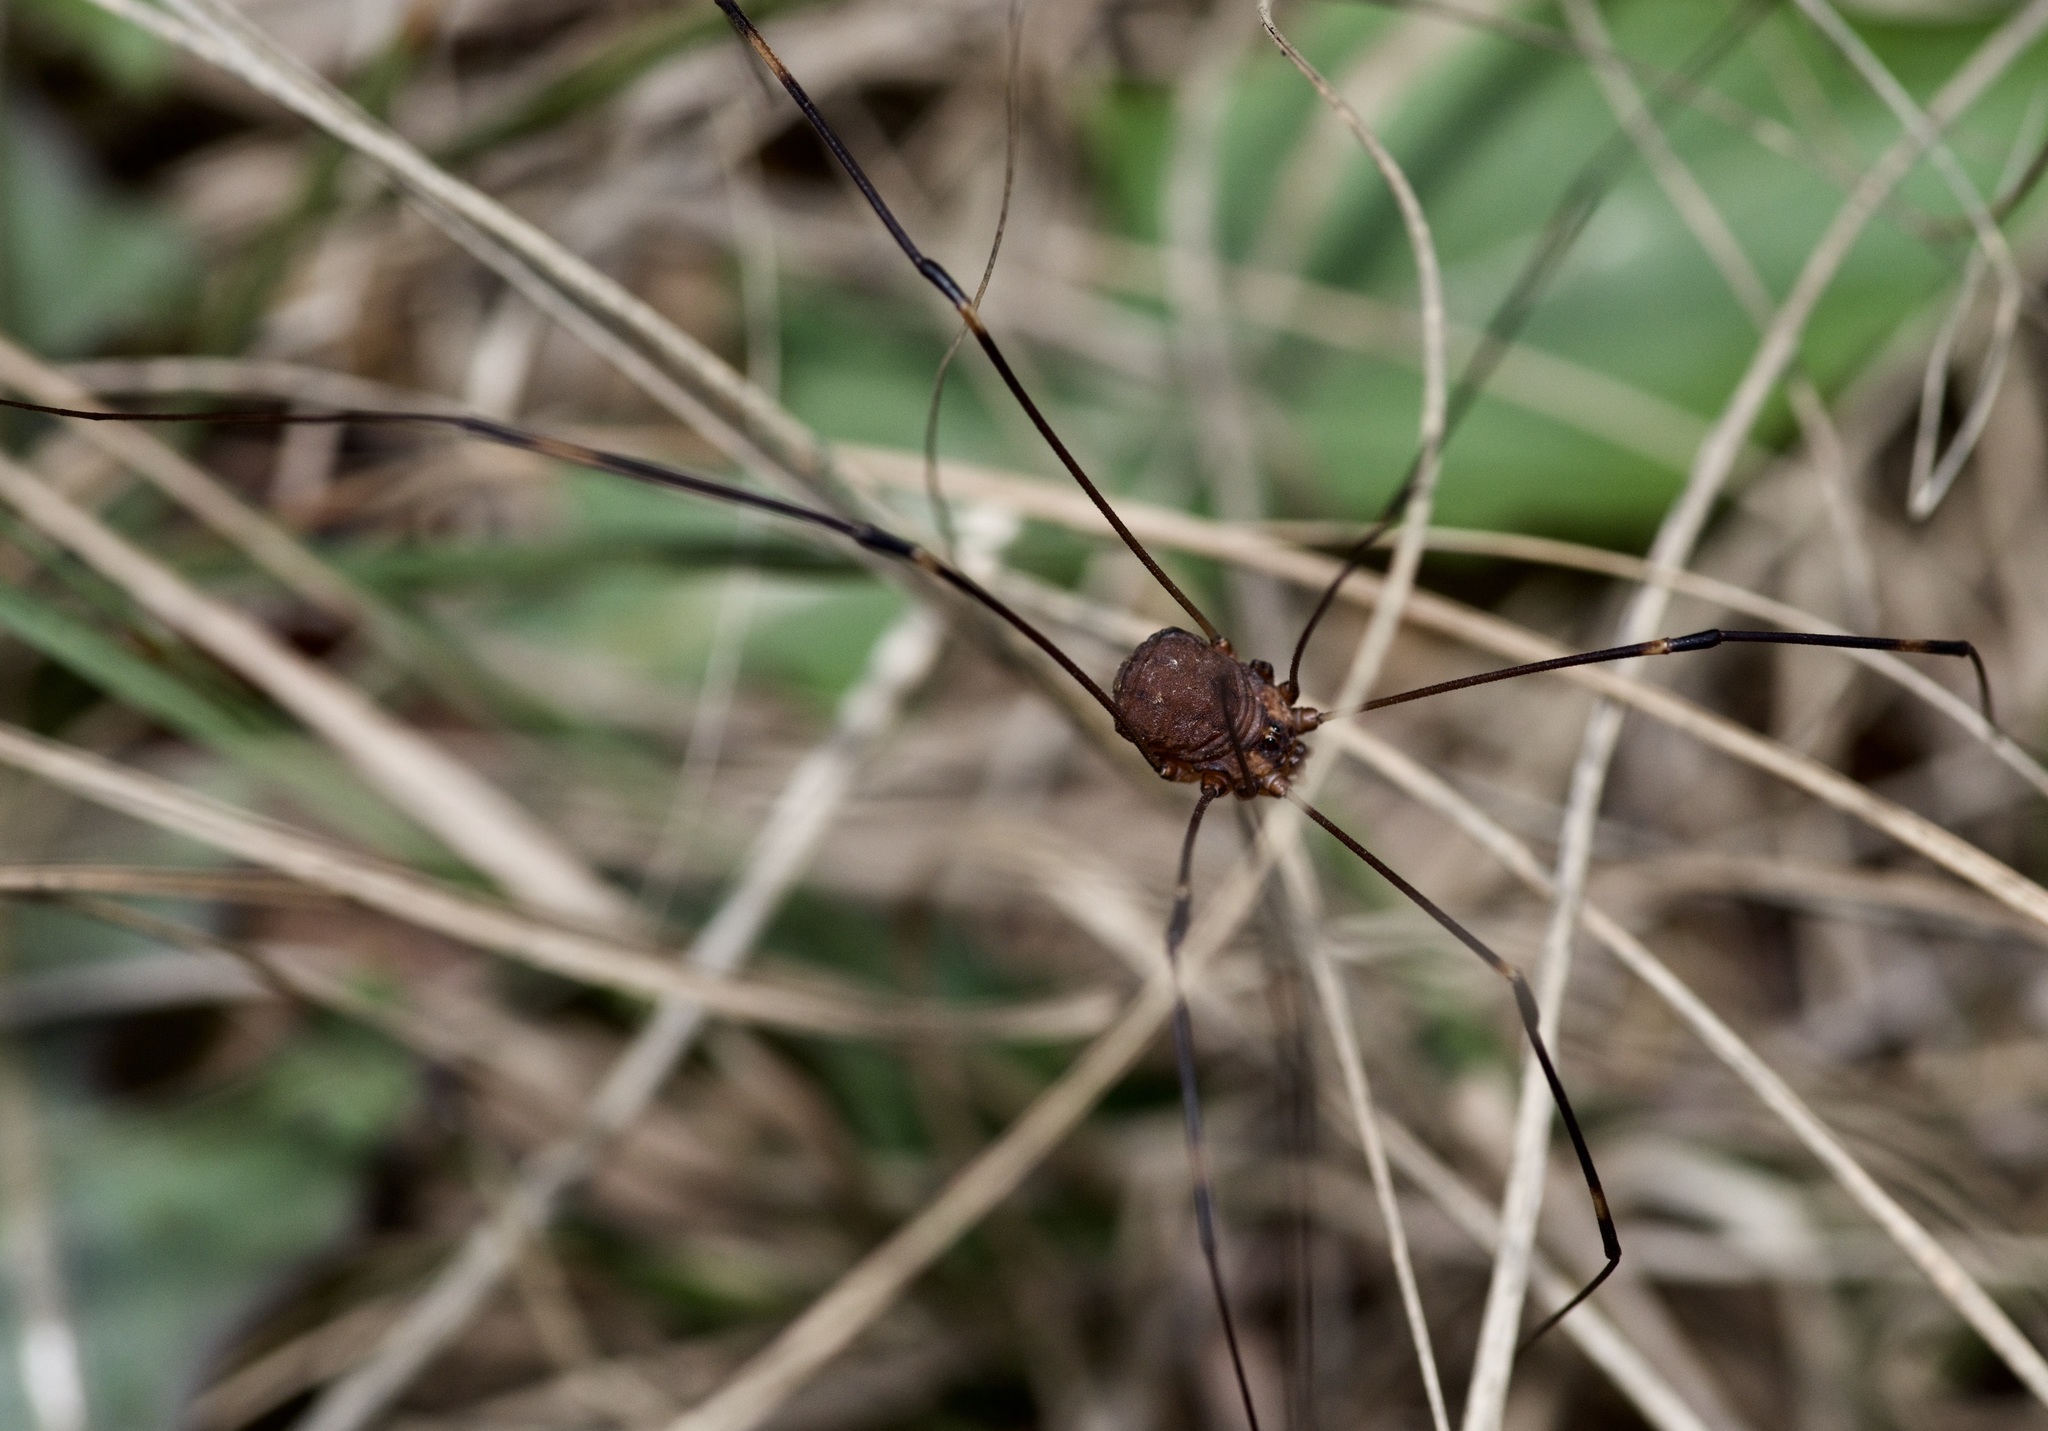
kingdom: Animalia
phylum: Arthropoda
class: Arachnida
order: Opiliones
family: Sclerosomatidae
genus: Leiobunum
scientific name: Leiobunum townsendi
